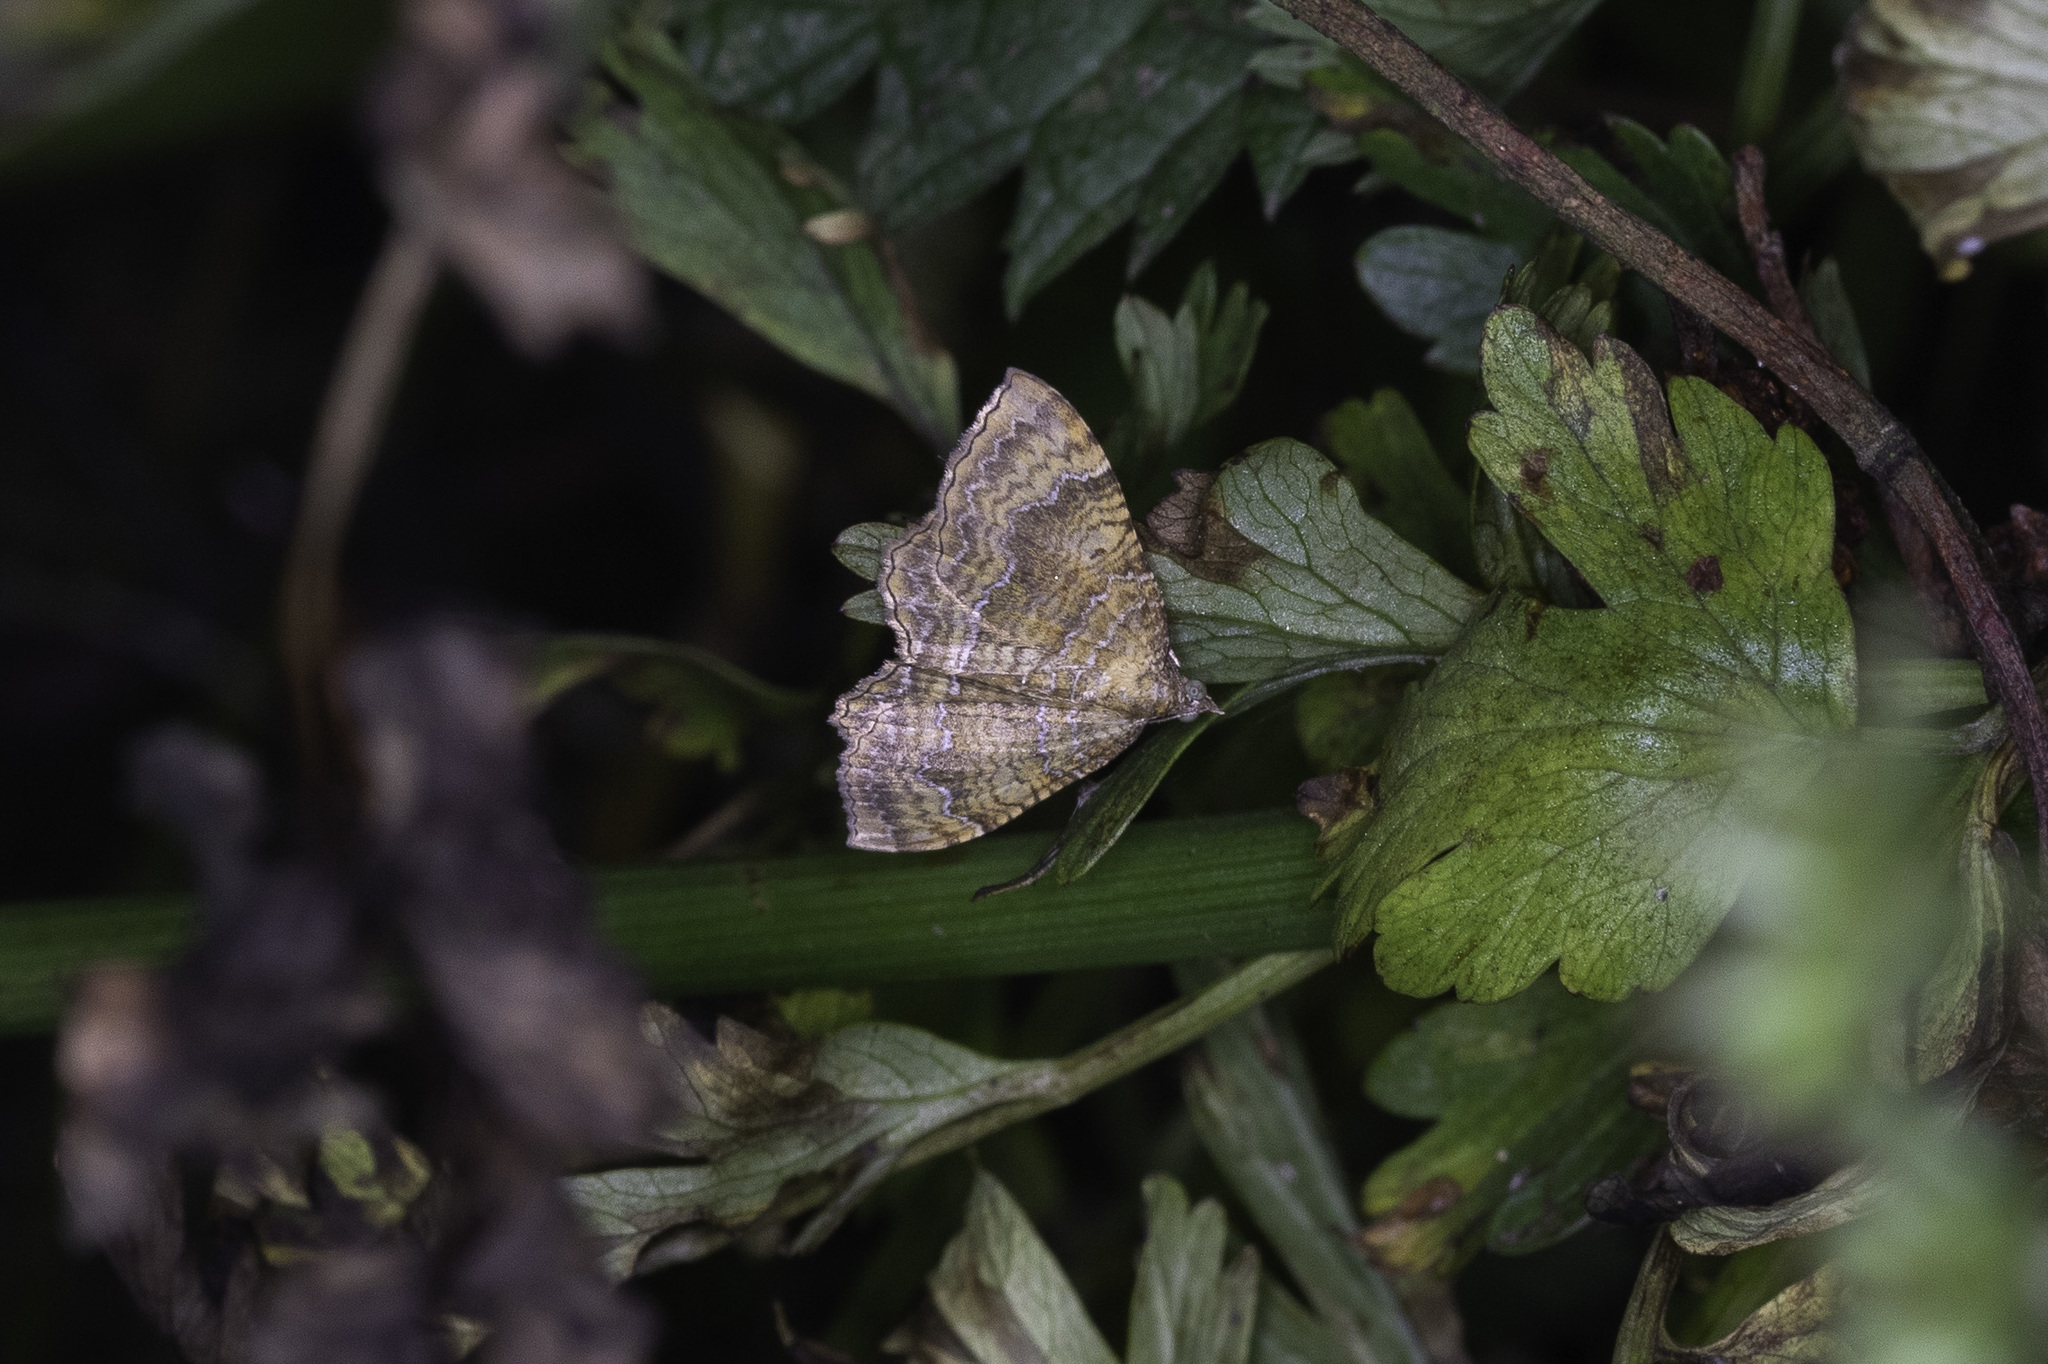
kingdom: Animalia
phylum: Arthropoda
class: Insecta
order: Lepidoptera
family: Geometridae
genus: Camptogramma
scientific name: Camptogramma bilineata
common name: Yellow shell
